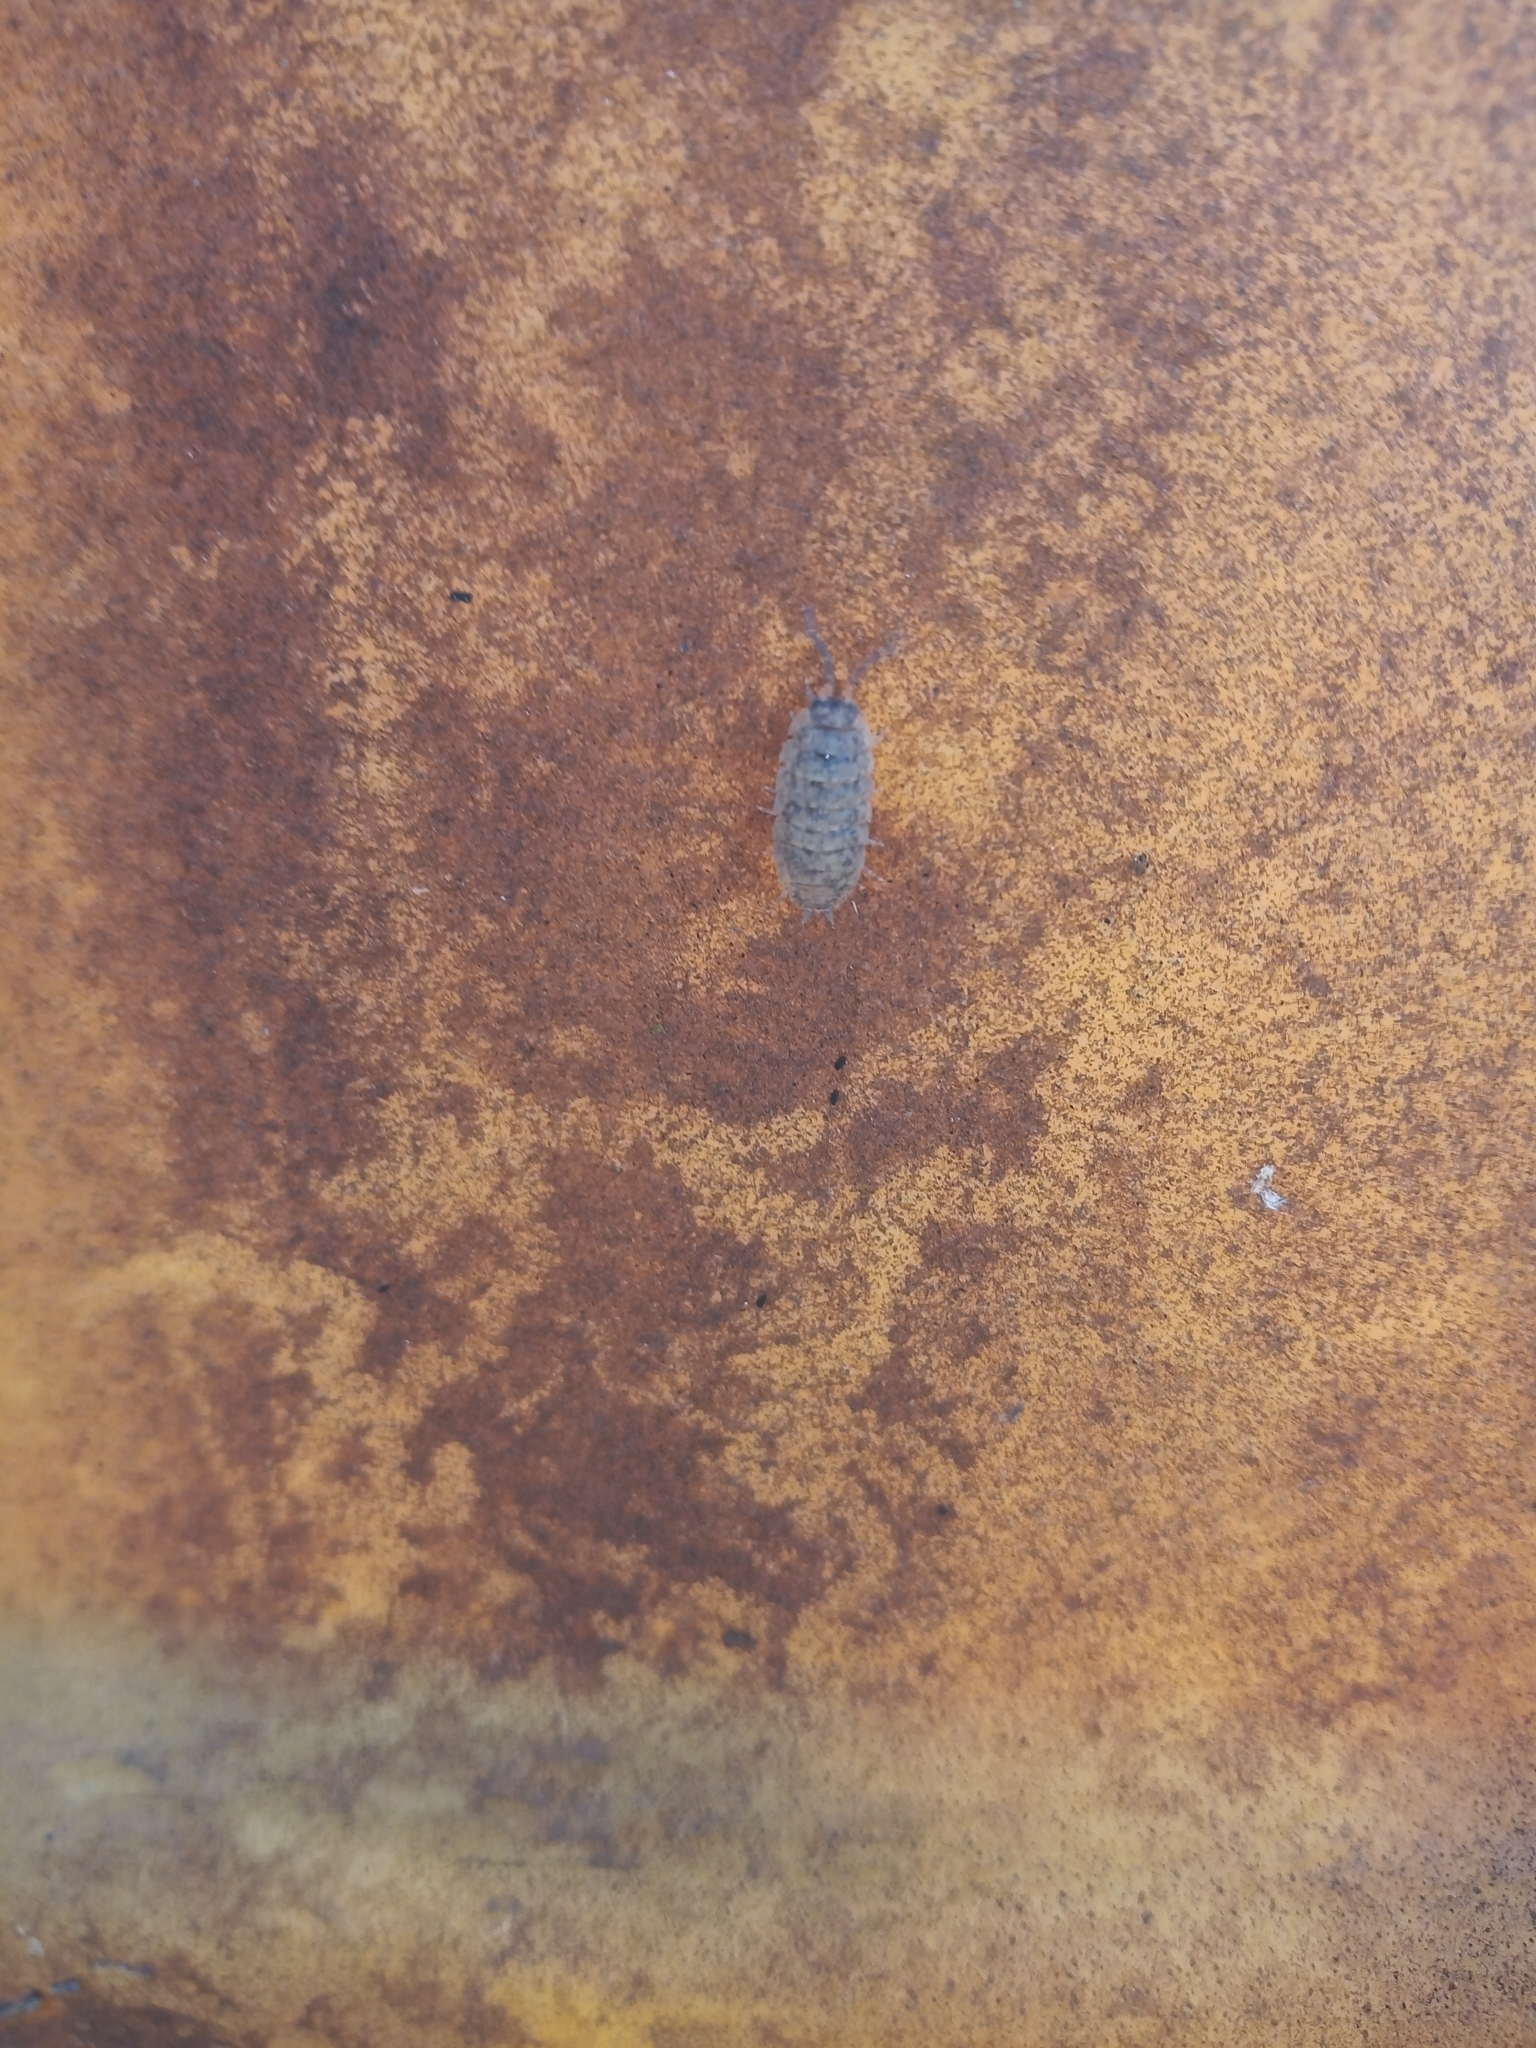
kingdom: Animalia
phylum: Arthropoda
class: Malacostraca
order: Isopoda
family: Porcellionidae
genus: Porcellio
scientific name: Porcellio scaber
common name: Common rough woodlouse
